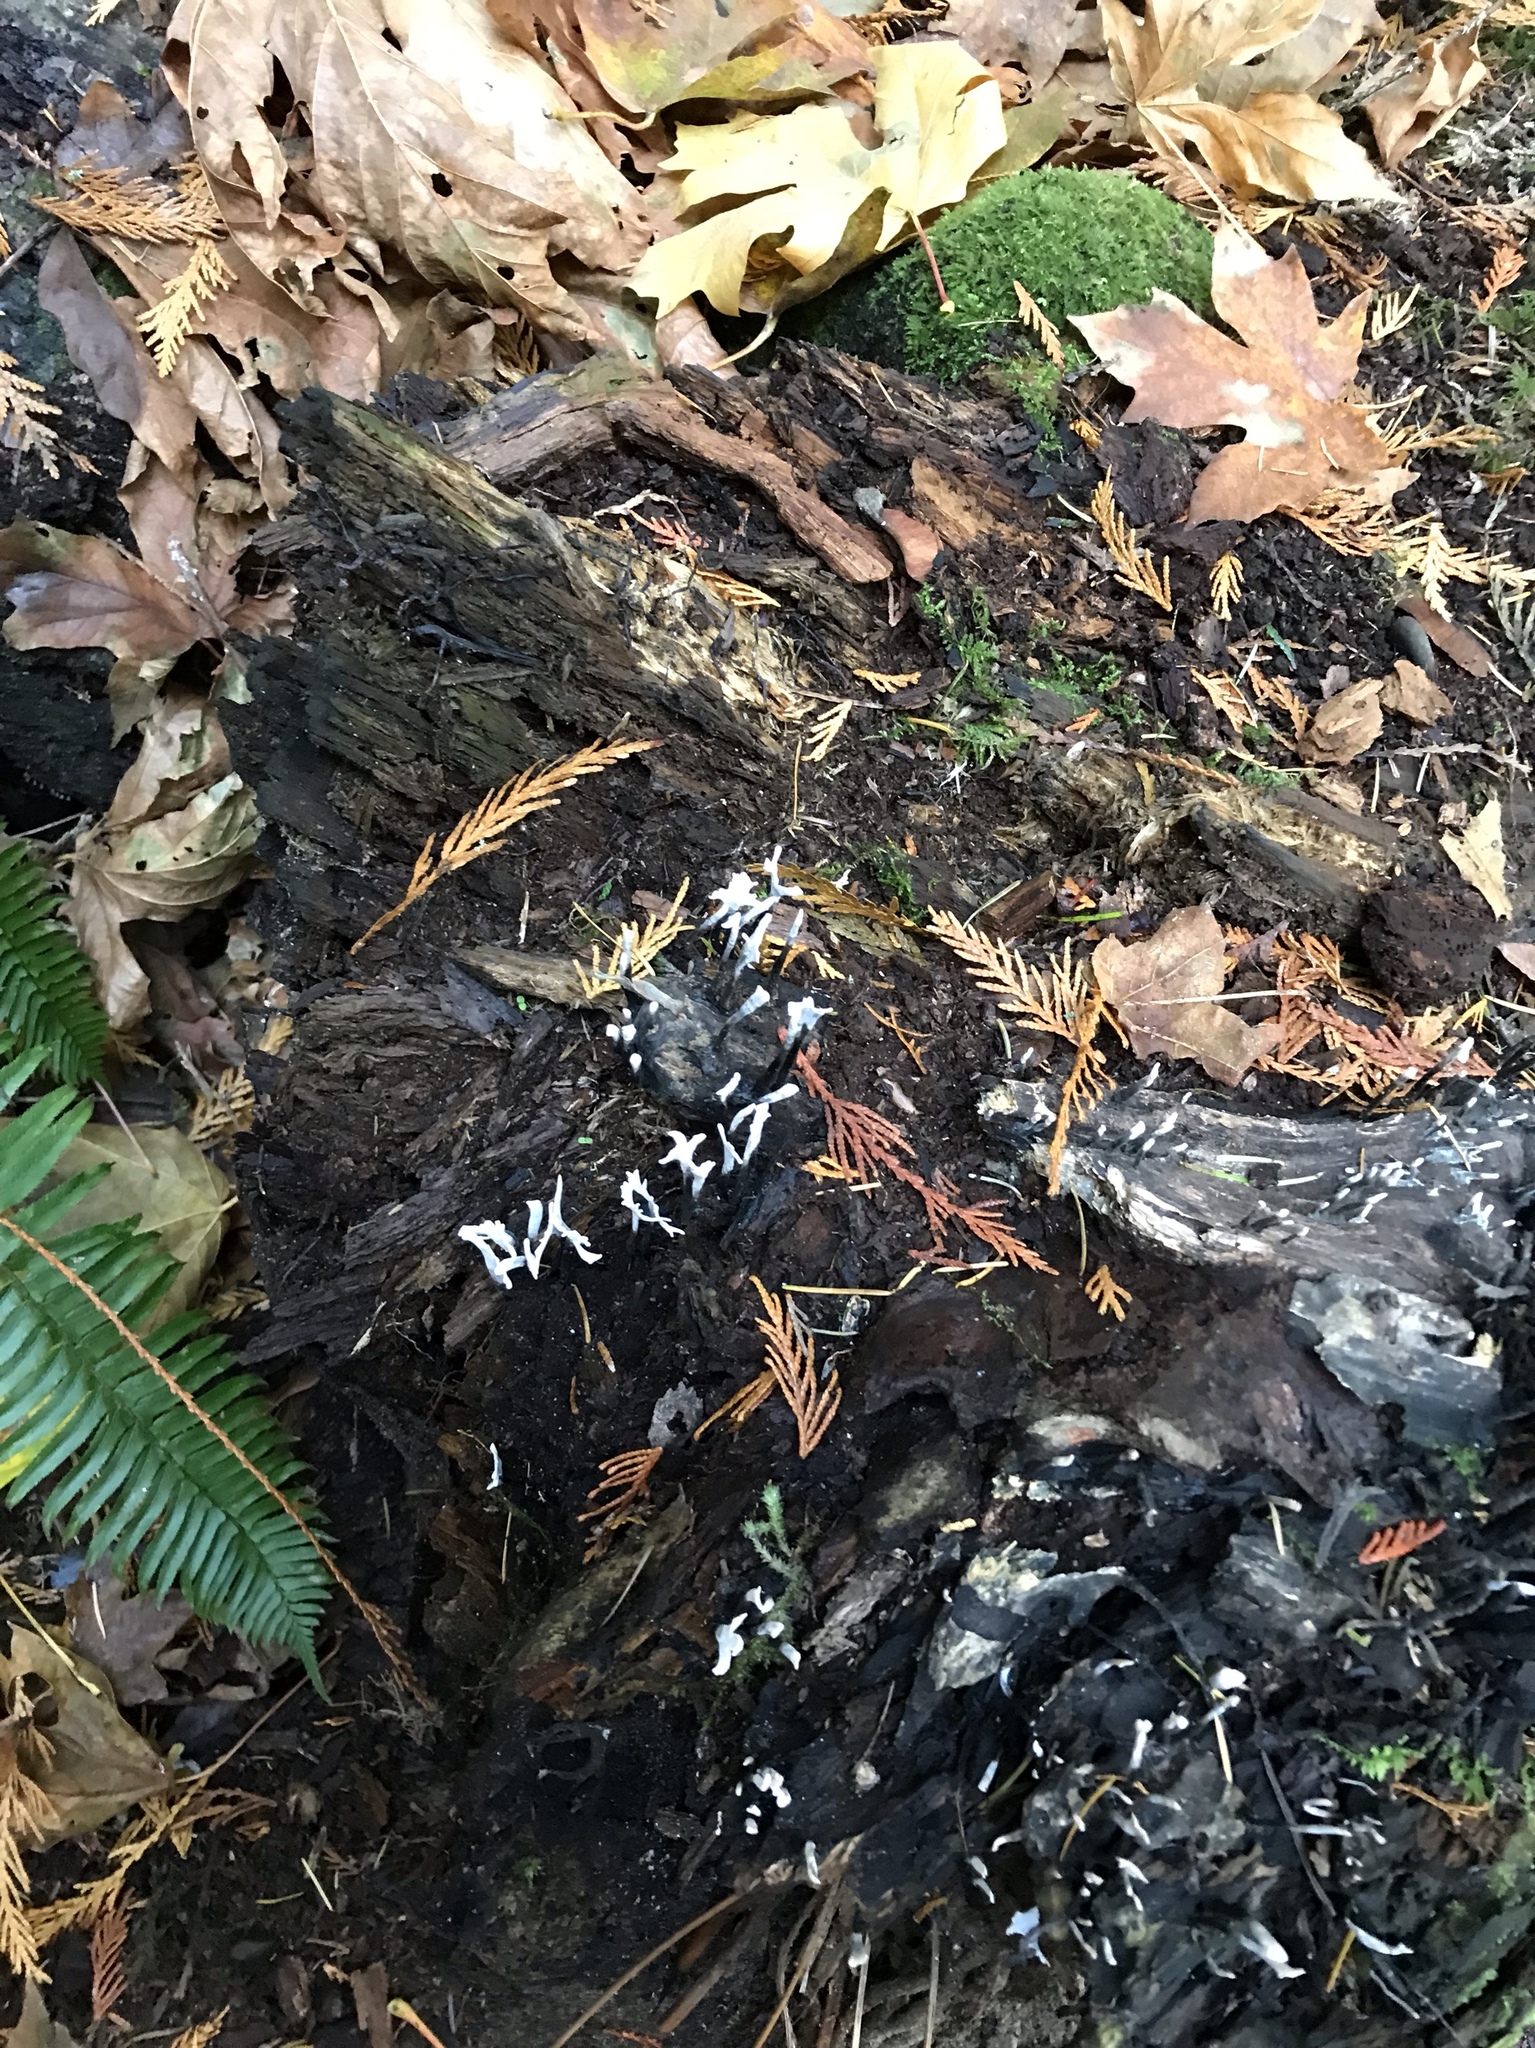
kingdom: Fungi
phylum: Ascomycota
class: Sordariomycetes
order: Xylariales
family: Xylariaceae
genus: Xylaria
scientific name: Xylaria hypoxylon
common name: Candle-snuff fungus
